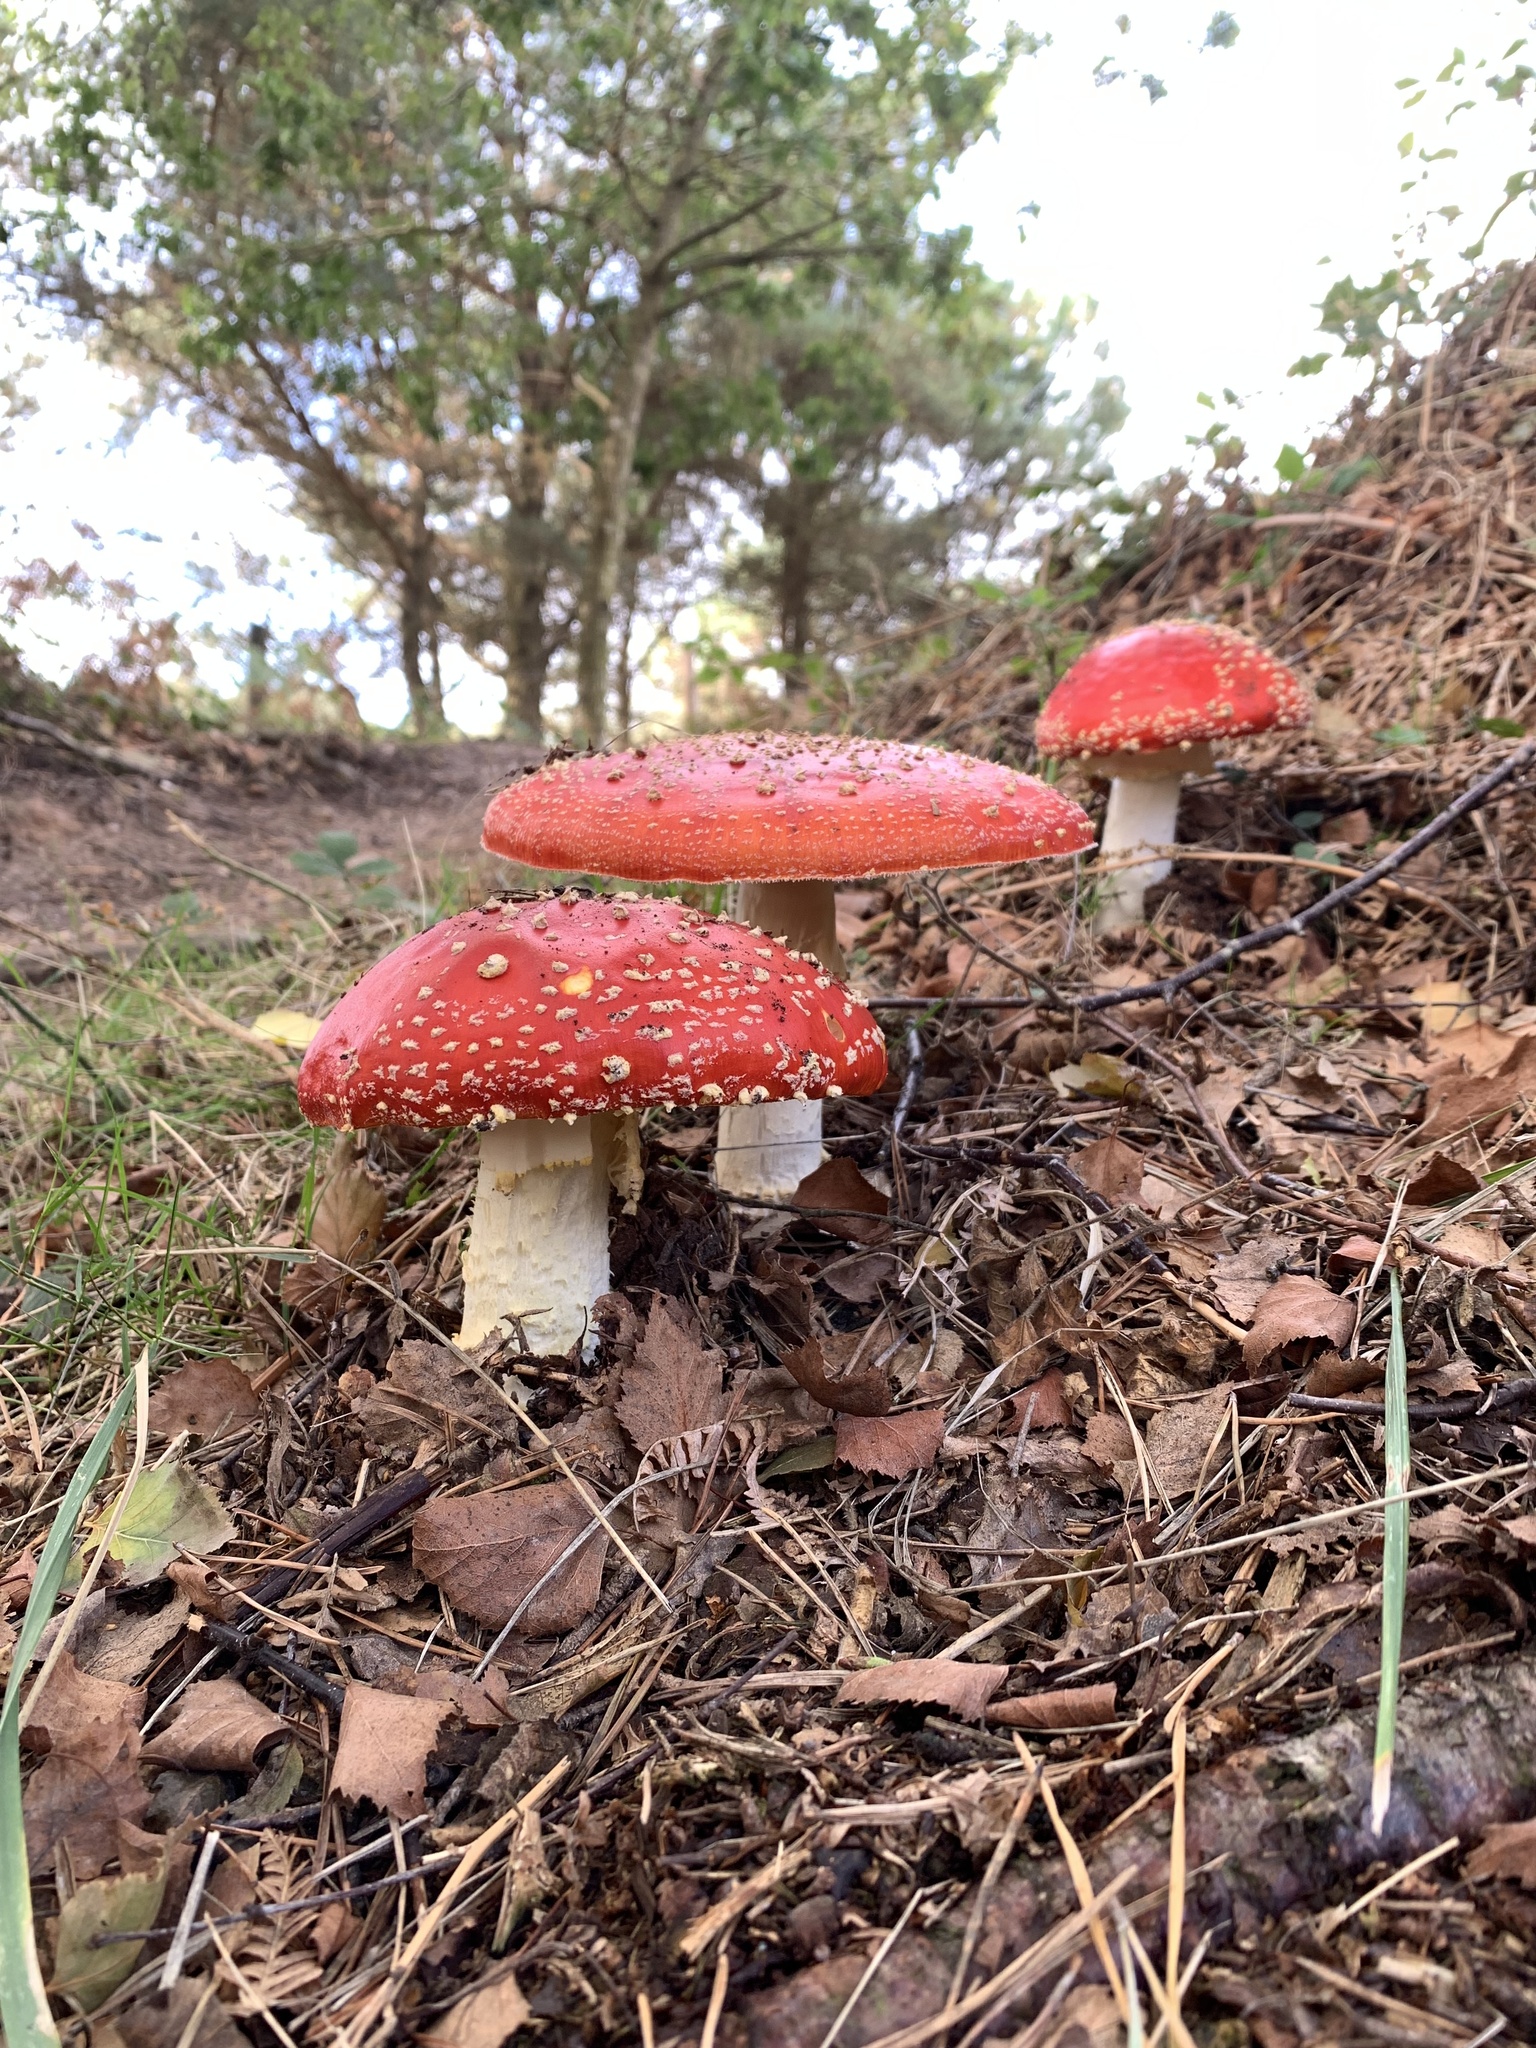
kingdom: Fungi
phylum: Basidiomycota
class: Agaricomycetes
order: Agaricales
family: Amanitaceae
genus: Amanita
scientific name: Amanita muscaria
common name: Fly agaric
